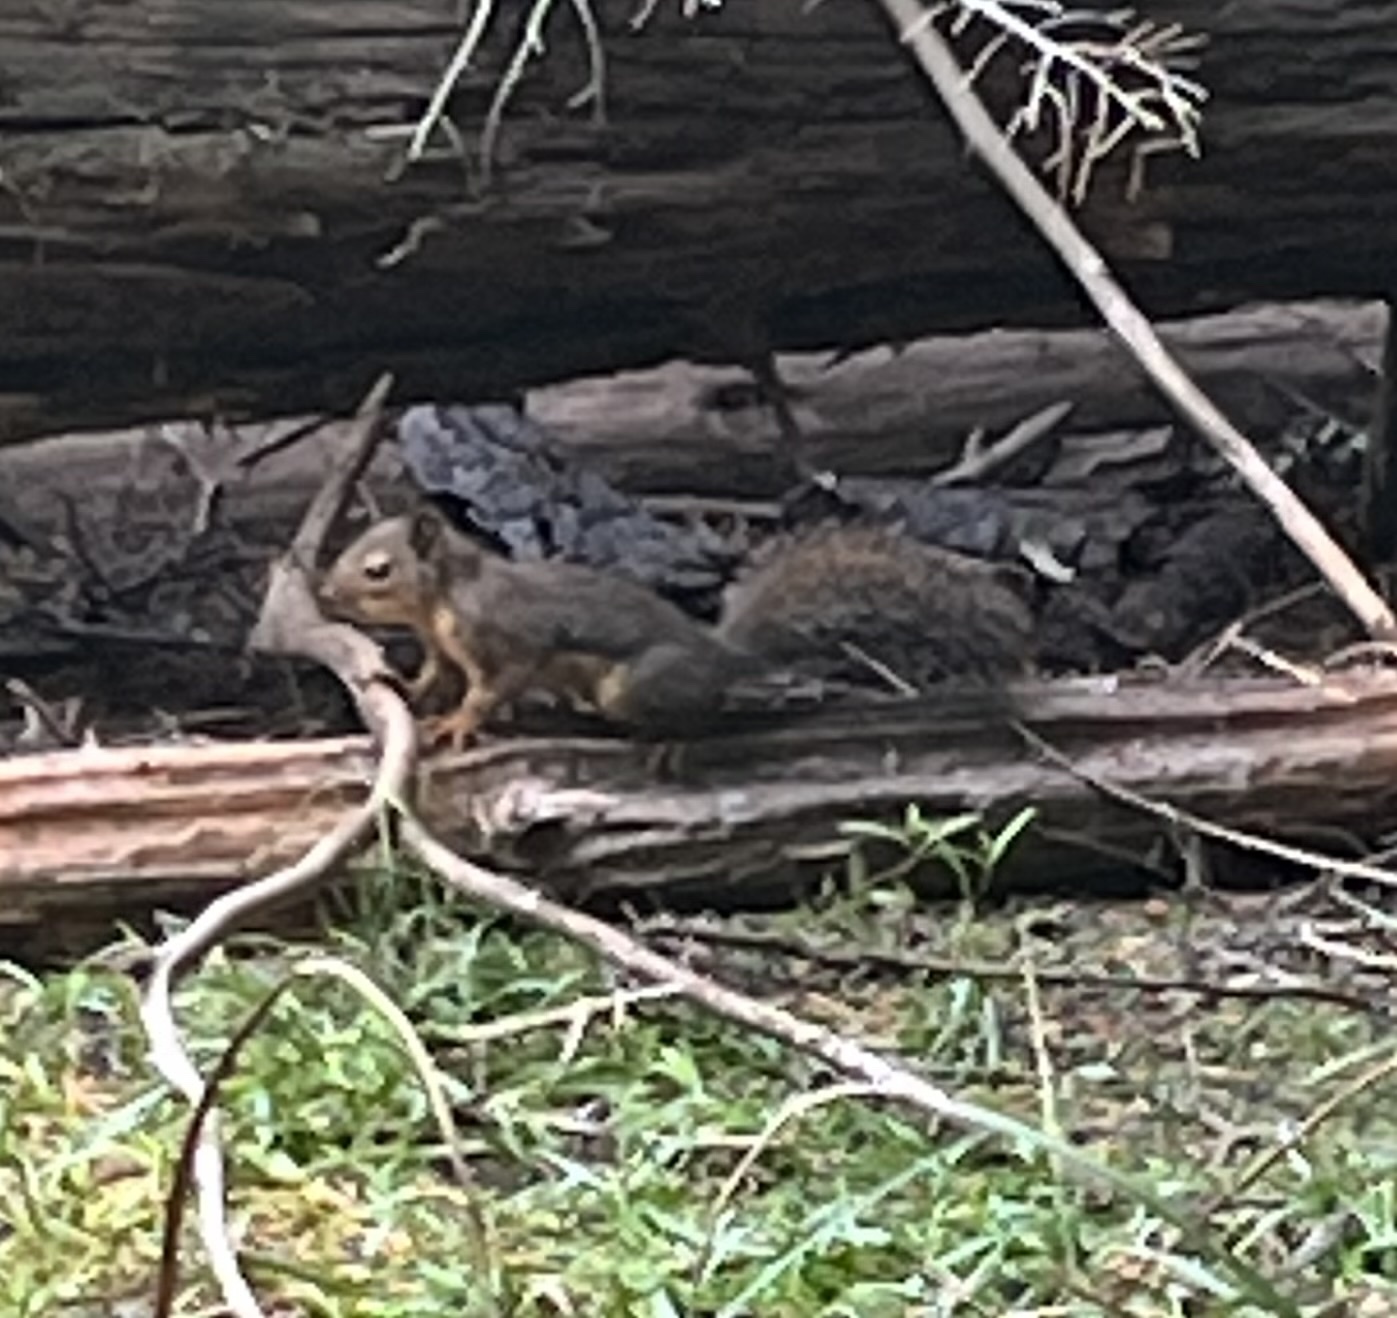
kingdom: Animalia
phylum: Chordata
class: Mammalia
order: Rodentia
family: Sciuridae
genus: Tamiasciurus
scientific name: Tamiasciurus douglasii
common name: Douglas's squirrel
